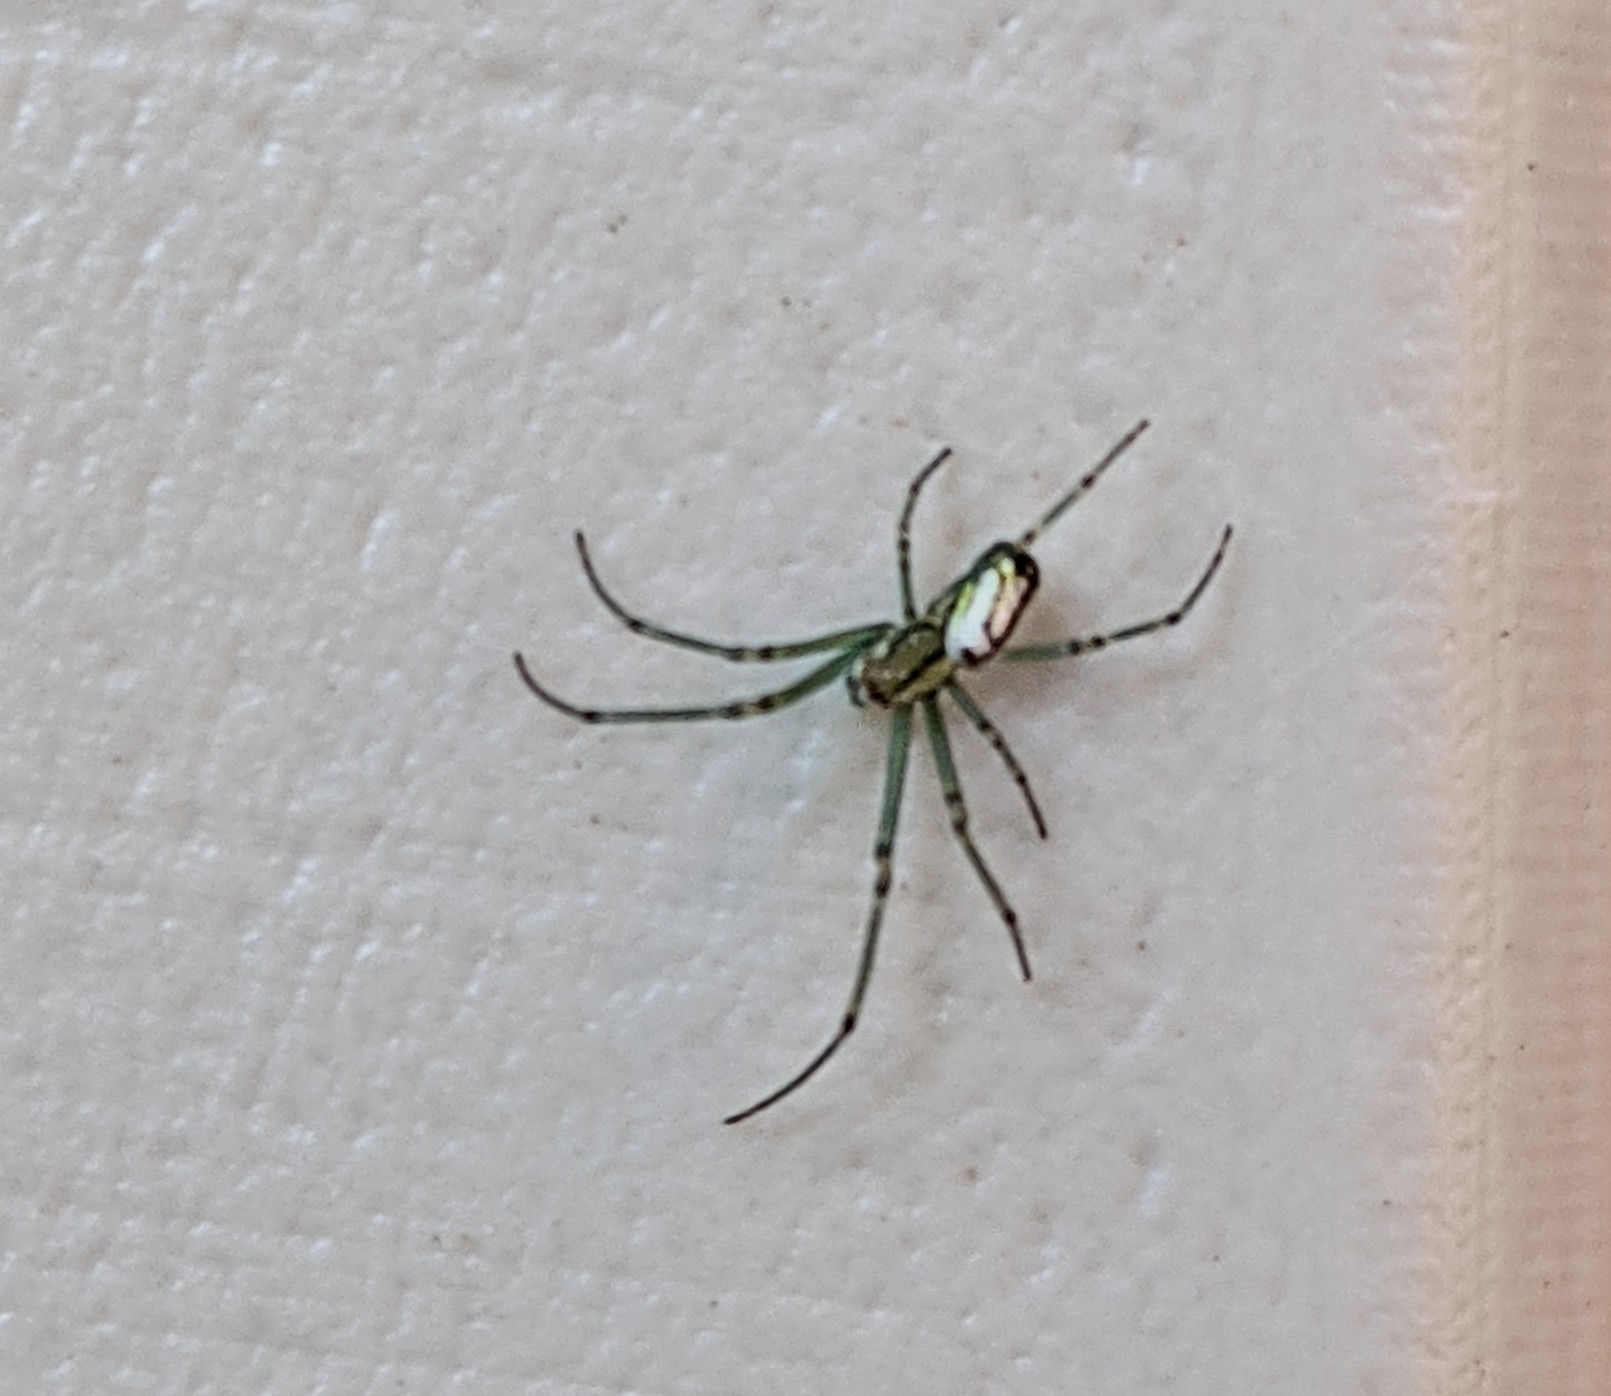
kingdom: Animalia
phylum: Arthropoda
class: Arachnida
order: Araneae
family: Tetragnathidae
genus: Leucauge
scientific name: Leucauge venusta
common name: Longjawed orb weavers
